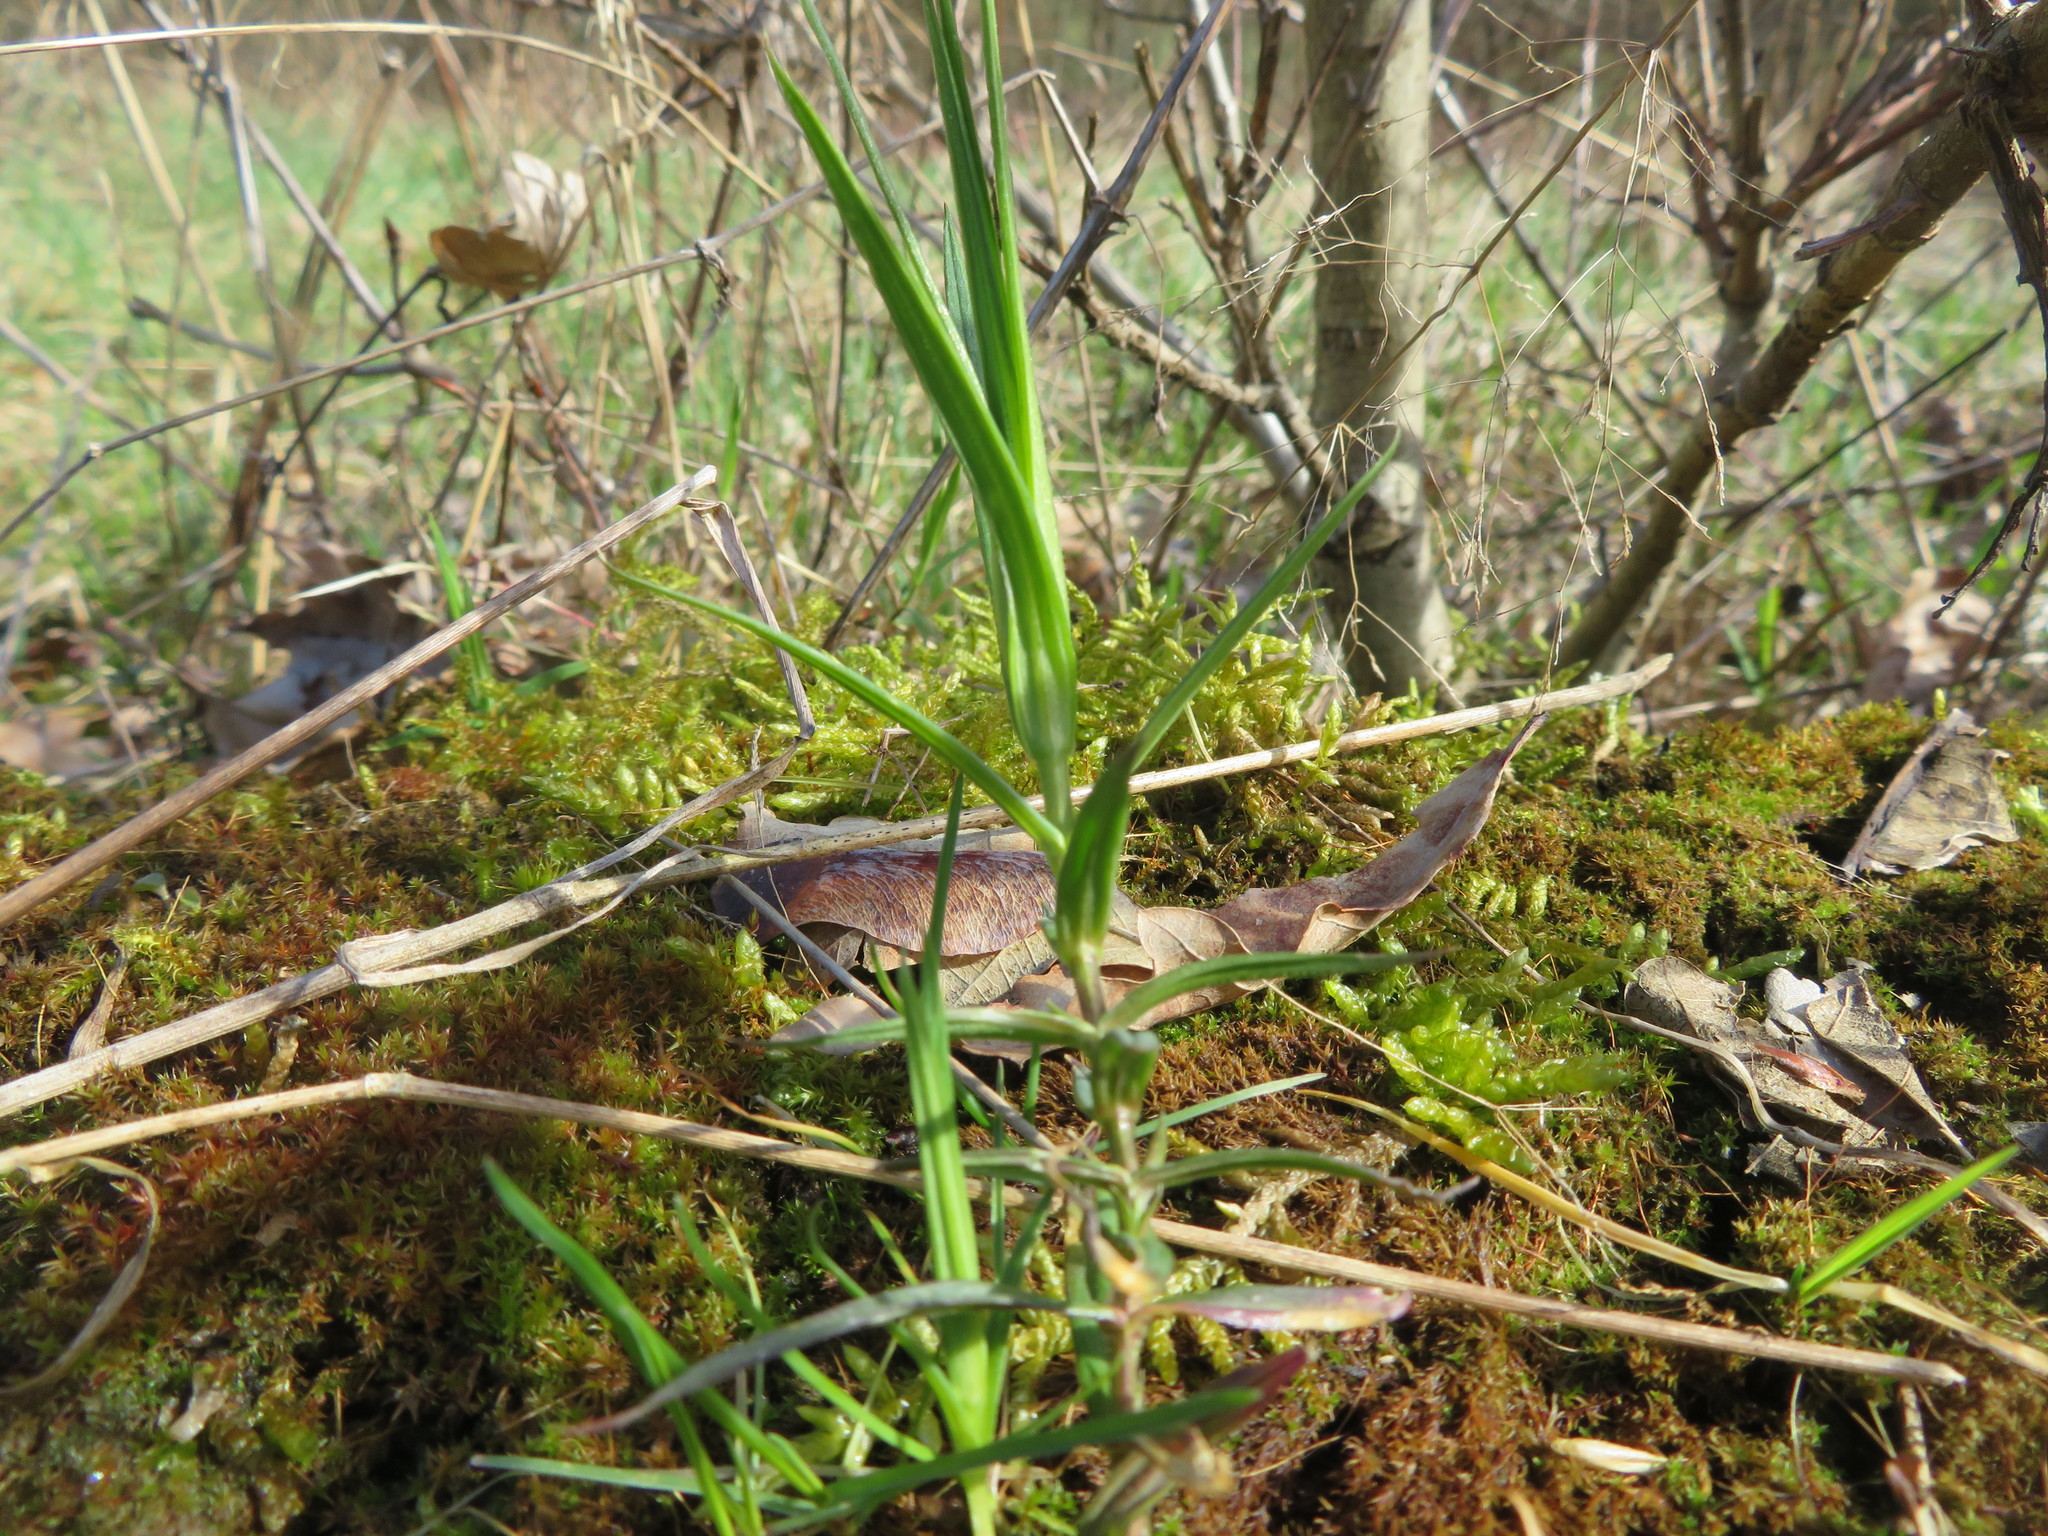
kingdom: Plantae
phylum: Tracheophyta
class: Magnoliopsida
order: Caryophyllales
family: Caryophyllaceae
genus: Rabelera
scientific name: Rabelera holostea
